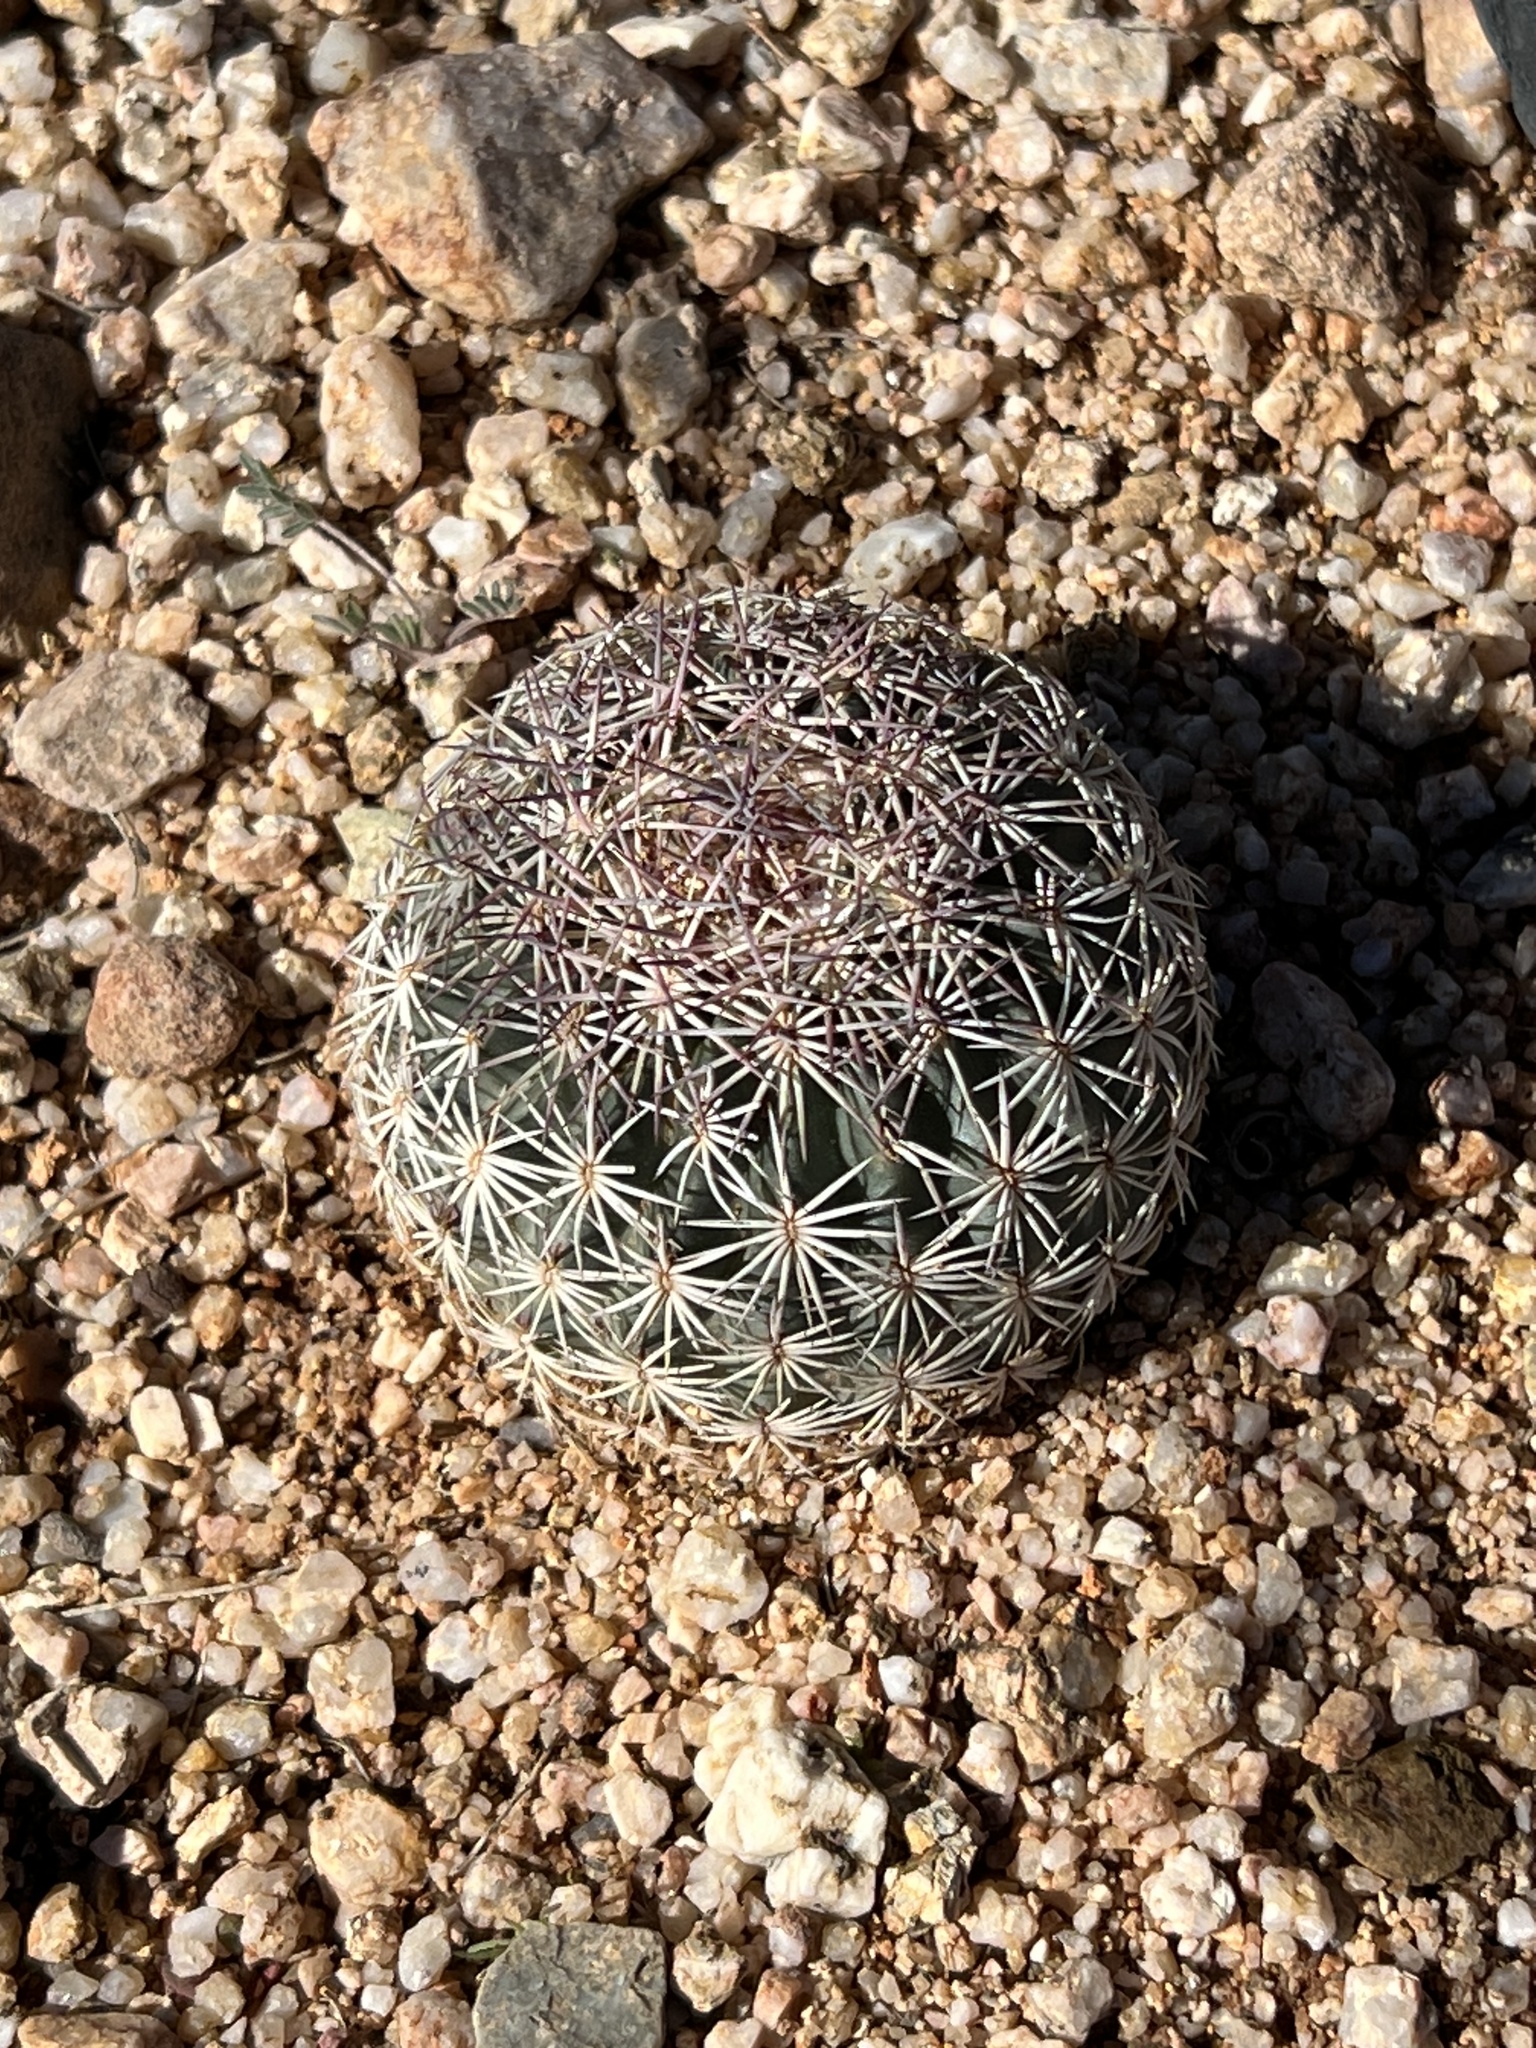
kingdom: Plantae
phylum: Tracheophyta
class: Magnoliopsida
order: Caryophyllales
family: Cactaceae
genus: Sclerocactus
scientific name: Sclerocactus johnsonii
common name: Eight-spine fishhook cactus
